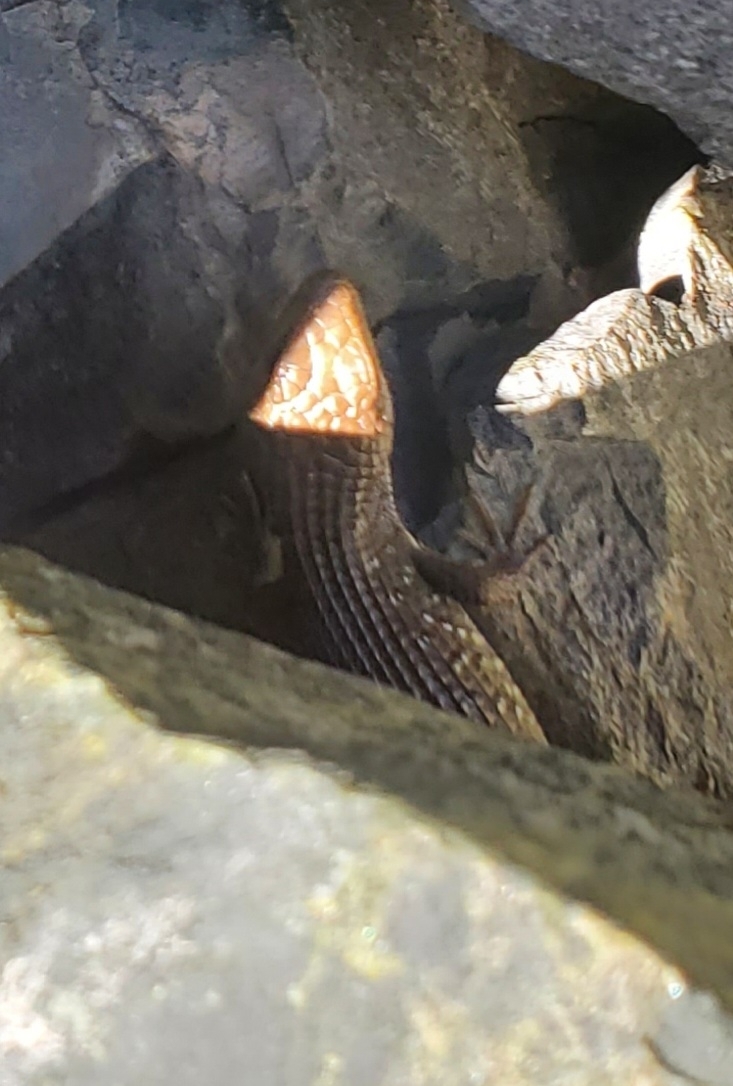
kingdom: Animalia
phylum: Chordata
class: Squamata
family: Anguidae
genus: Elgaria
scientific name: Elgaria coerulea
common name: Northern alligator lizard
